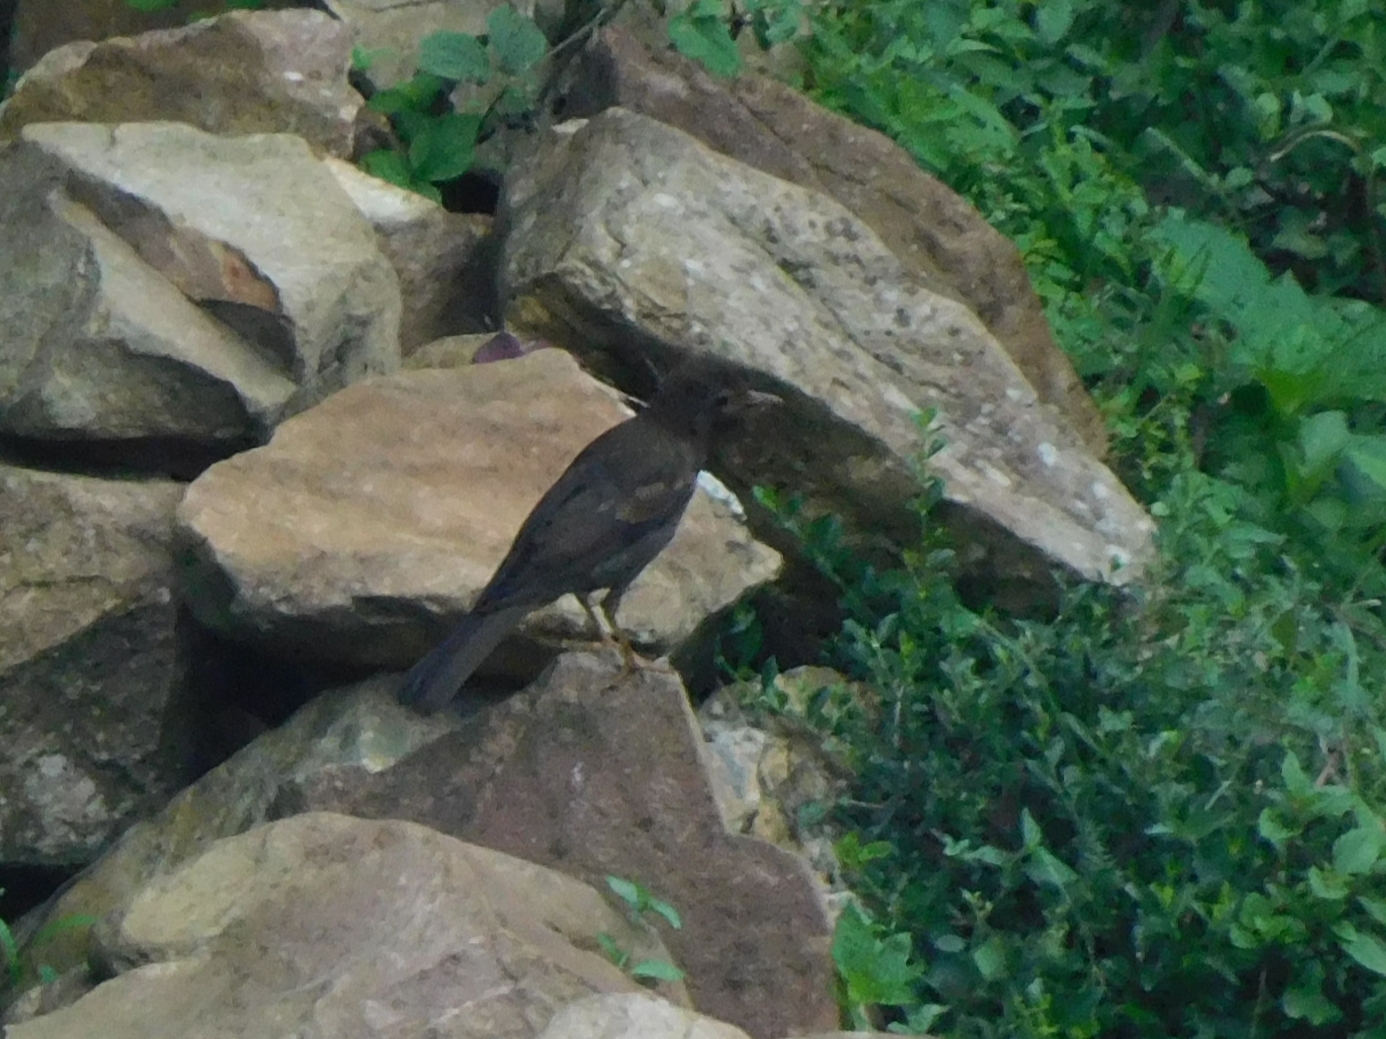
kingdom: Animalia
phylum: Chordata
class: Aves
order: Passeriformes
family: Turdidae
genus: Turdus
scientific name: Turdus boulboul
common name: Grey-winged blackbird
